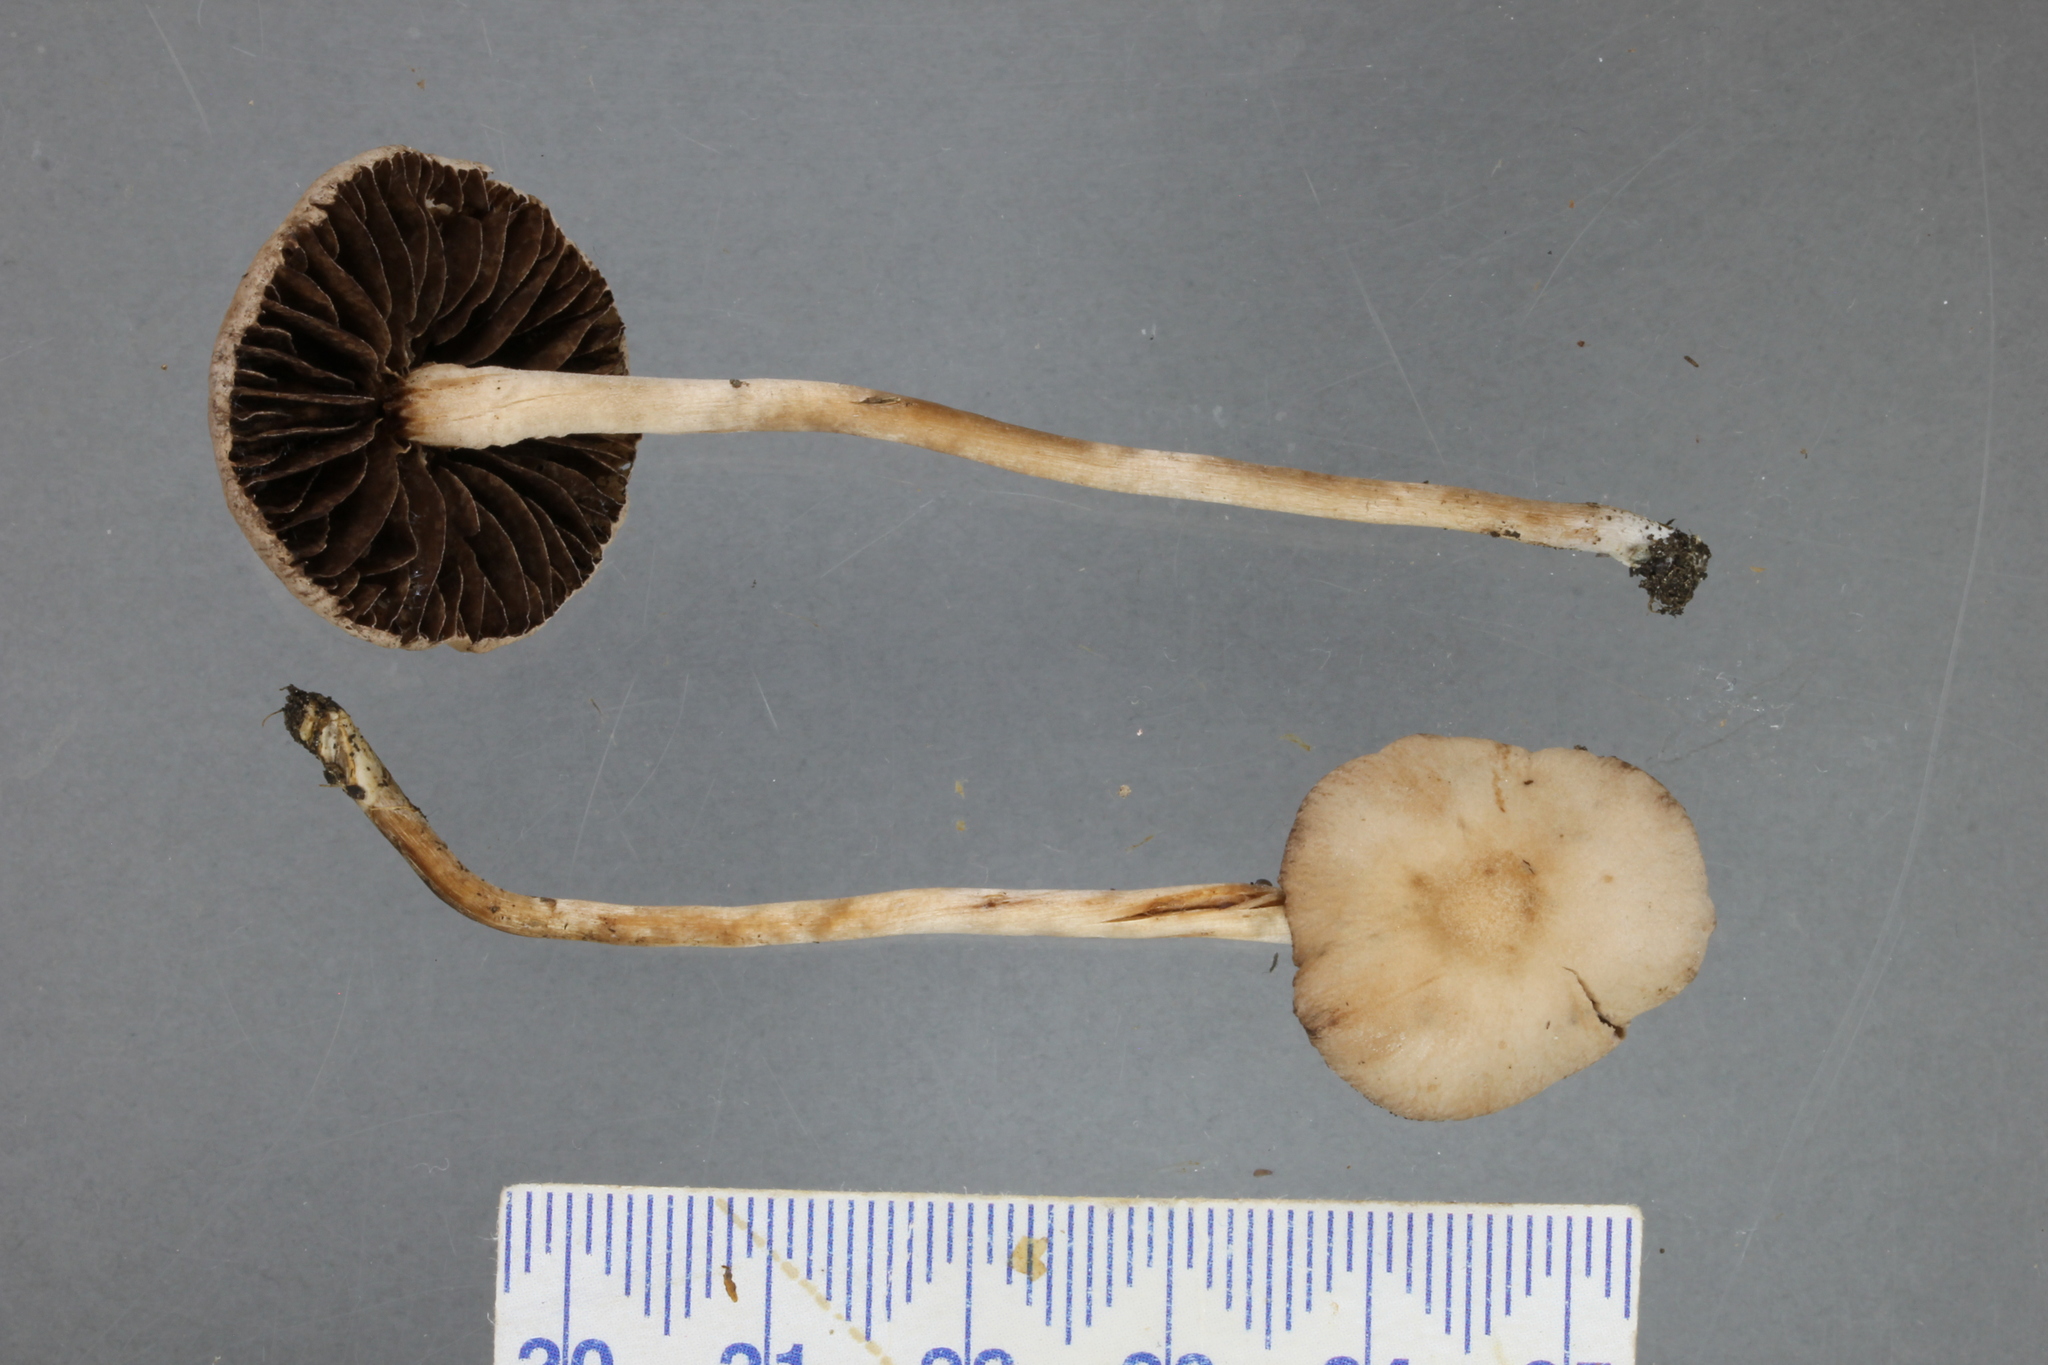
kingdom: Fungi
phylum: Basidiomycota
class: Agaricomycetes
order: Agaricales
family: Bolbitiaceae
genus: Panaeolina
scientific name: Panaeolina foenisecii
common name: Brown hay cap
